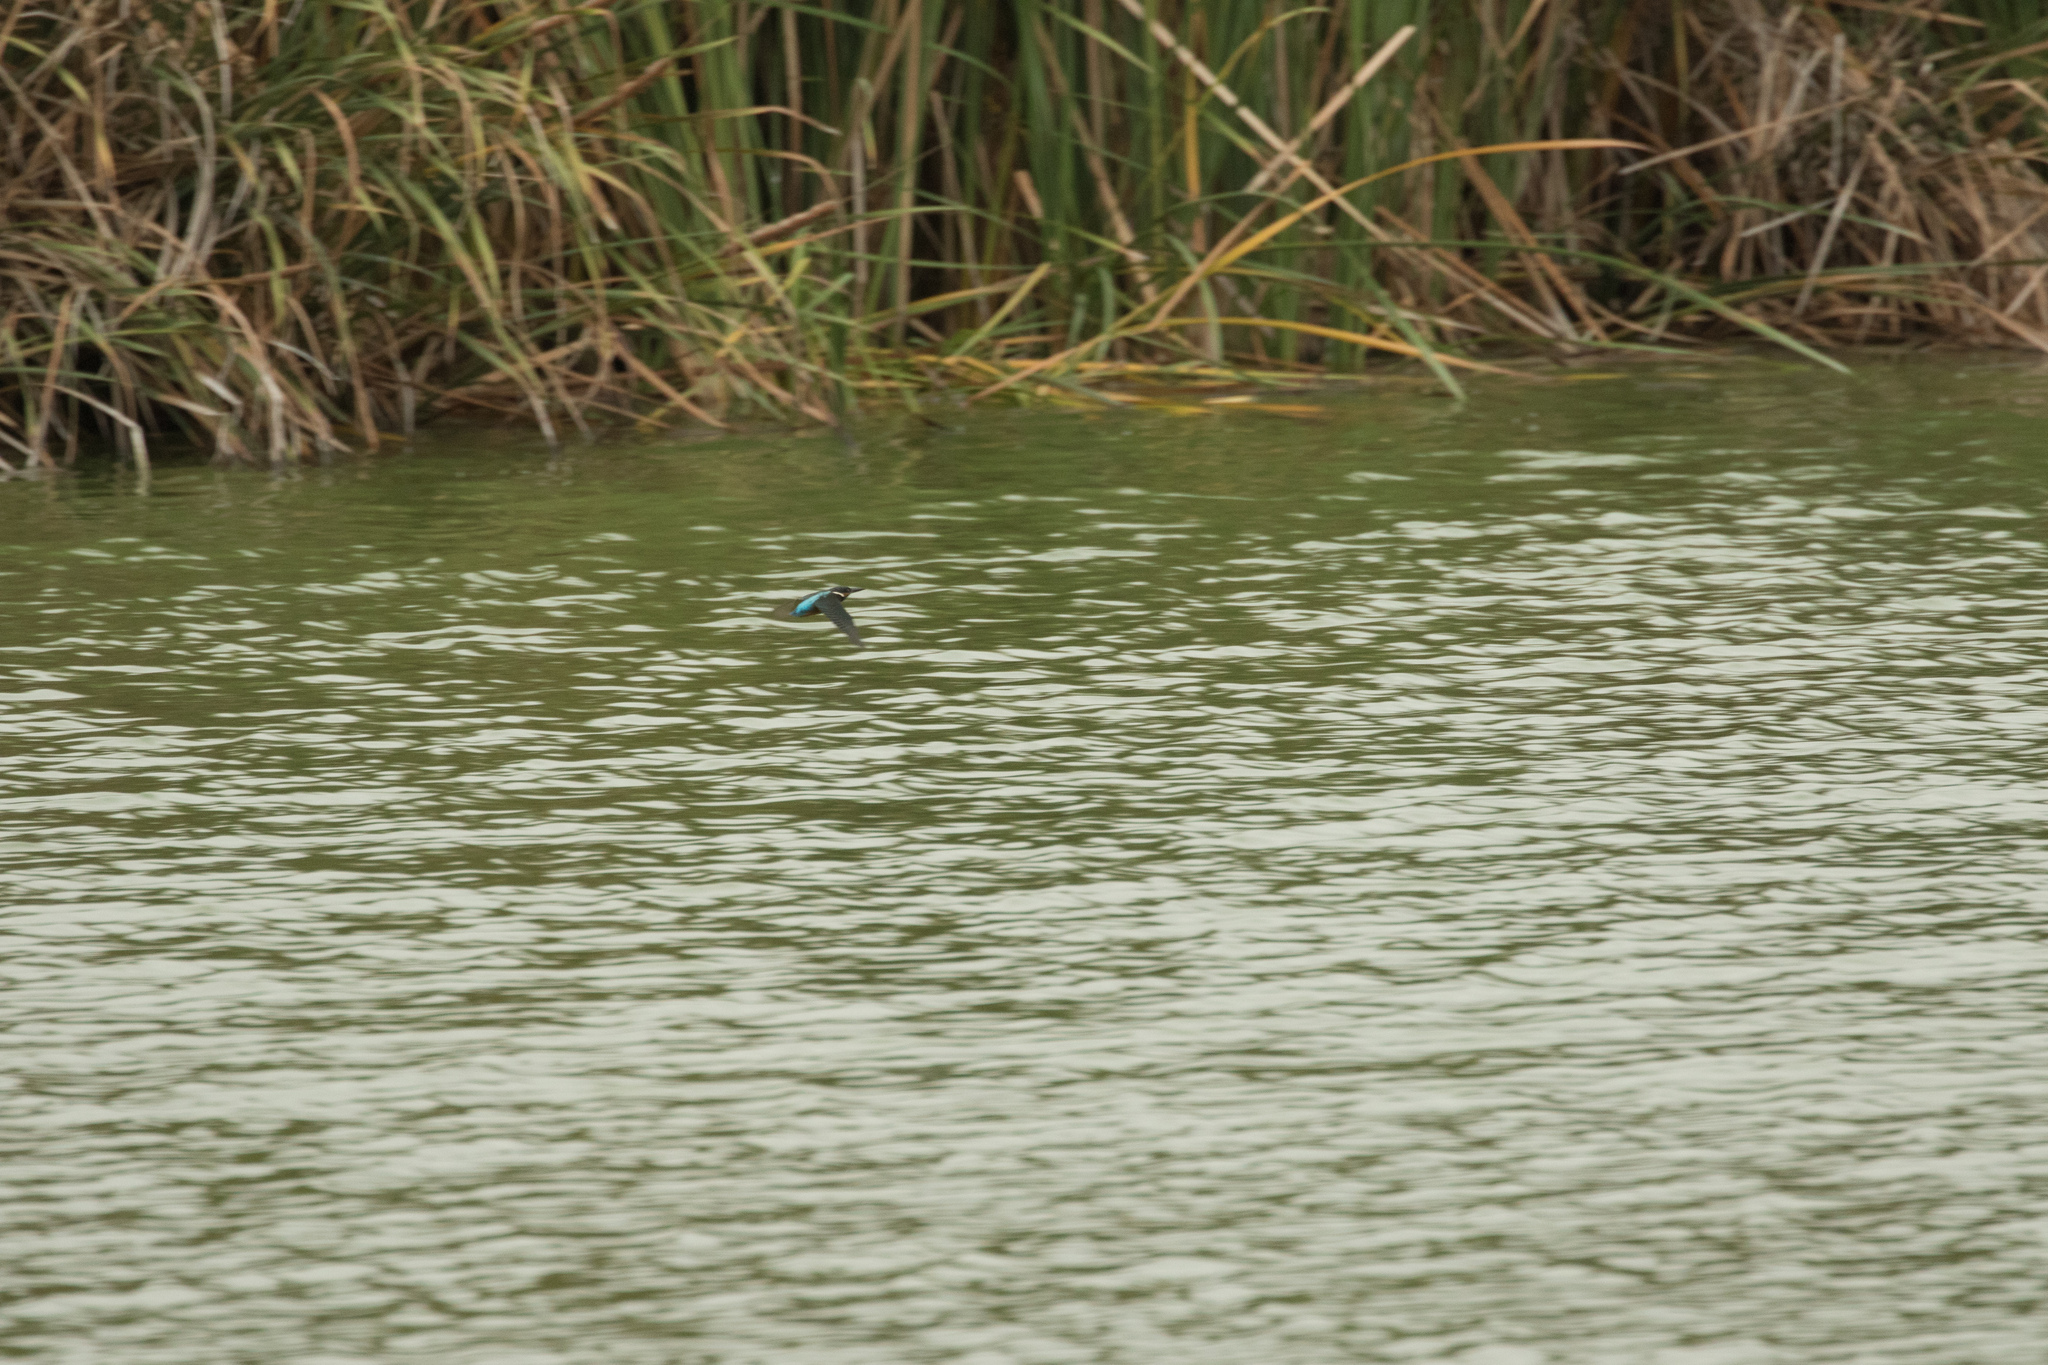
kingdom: Animalia
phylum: Chordata
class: Aves
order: Coraciiformes
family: Alcedinidae
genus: Alcedo
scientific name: Alcedo atthis
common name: Common kingfisher
